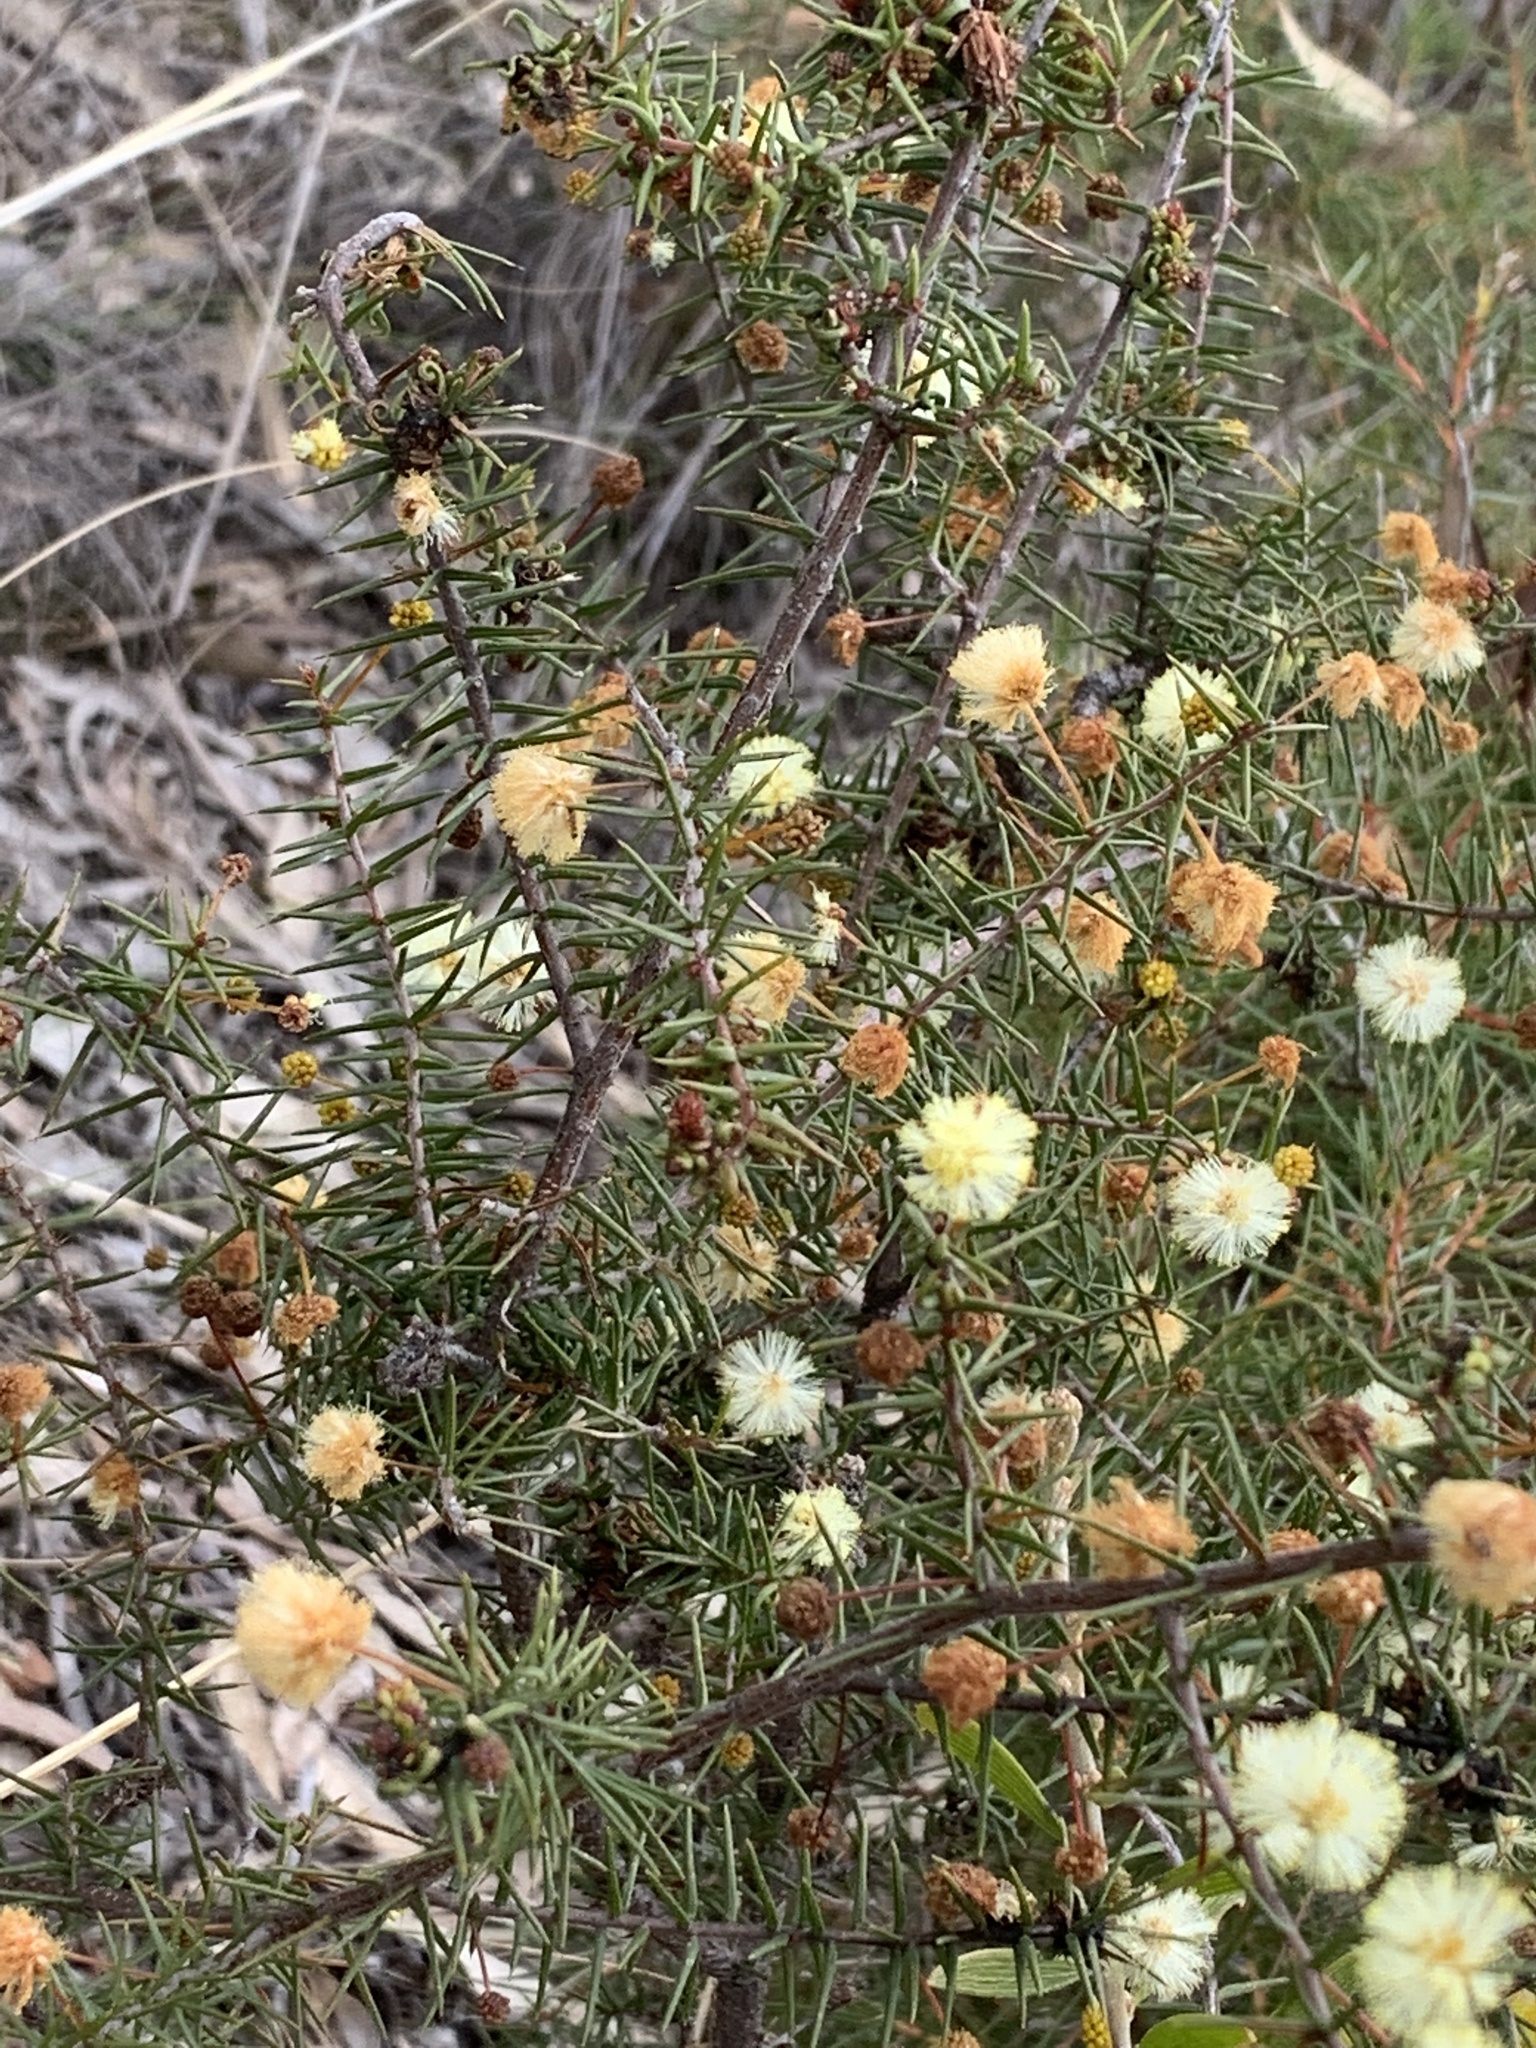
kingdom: Plantae
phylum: Tracheophyta
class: Magnoliopsida
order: Fabales
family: Fabaceae
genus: Acacia
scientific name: Acacia ulicifolia
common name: Juniper wattle
